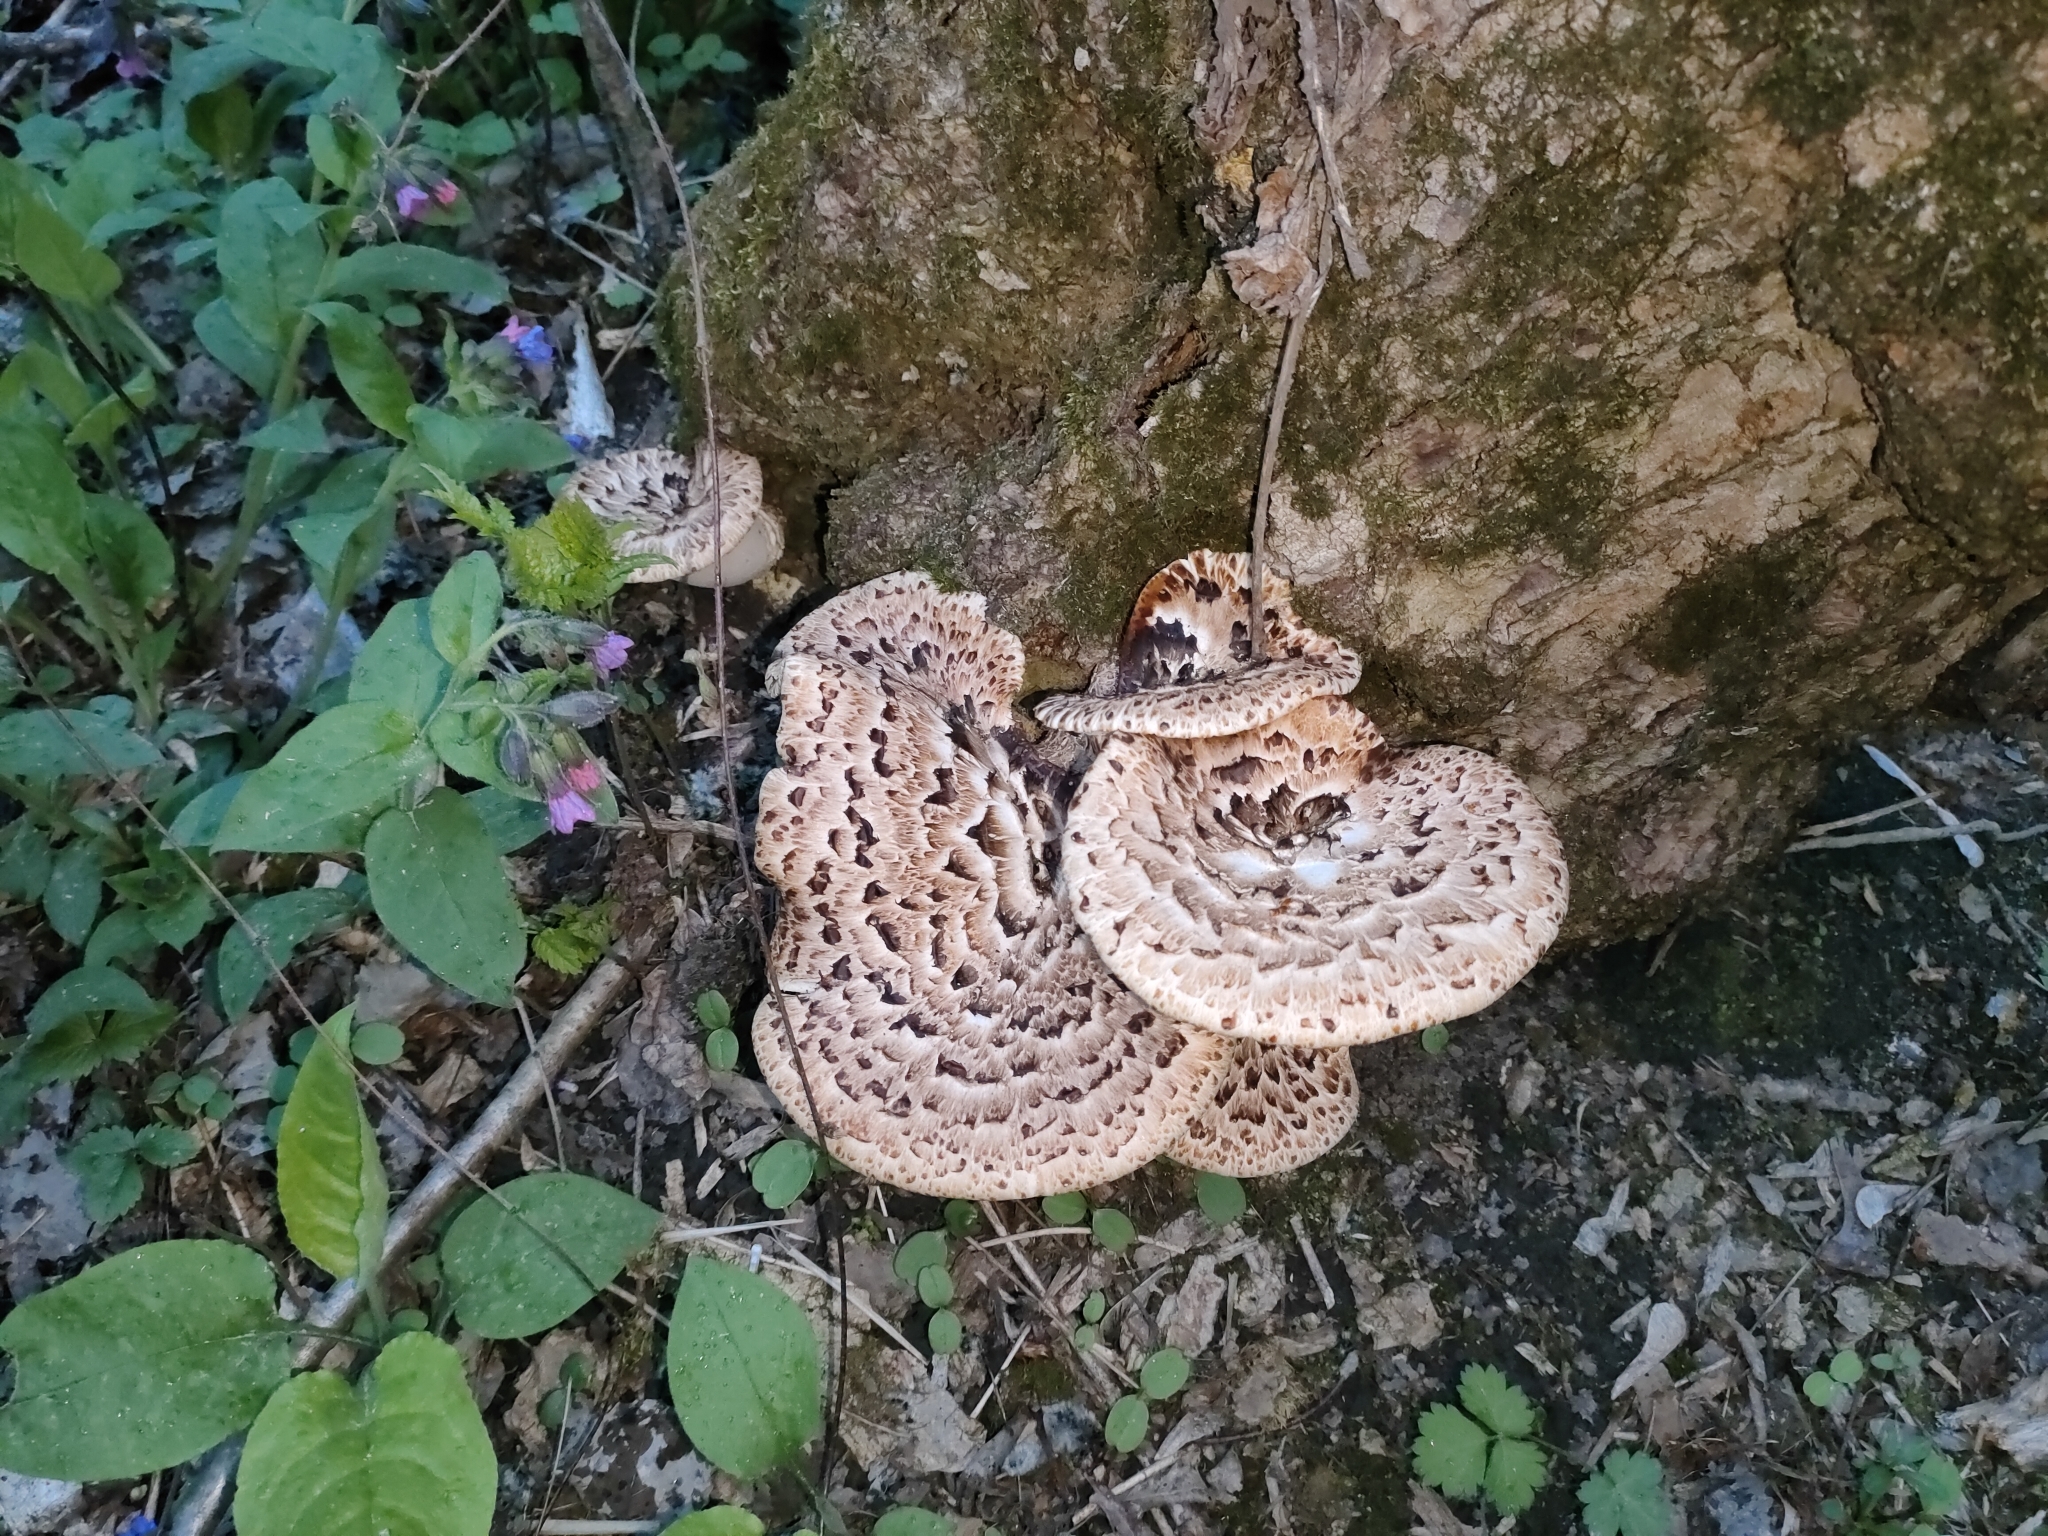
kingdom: Fungi
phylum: Basidiomycota
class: Agaricomycetes
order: Polyporales
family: Polyporaceae
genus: Cerioporus
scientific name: Cerioporus squamosus
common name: Dryad's saddle
